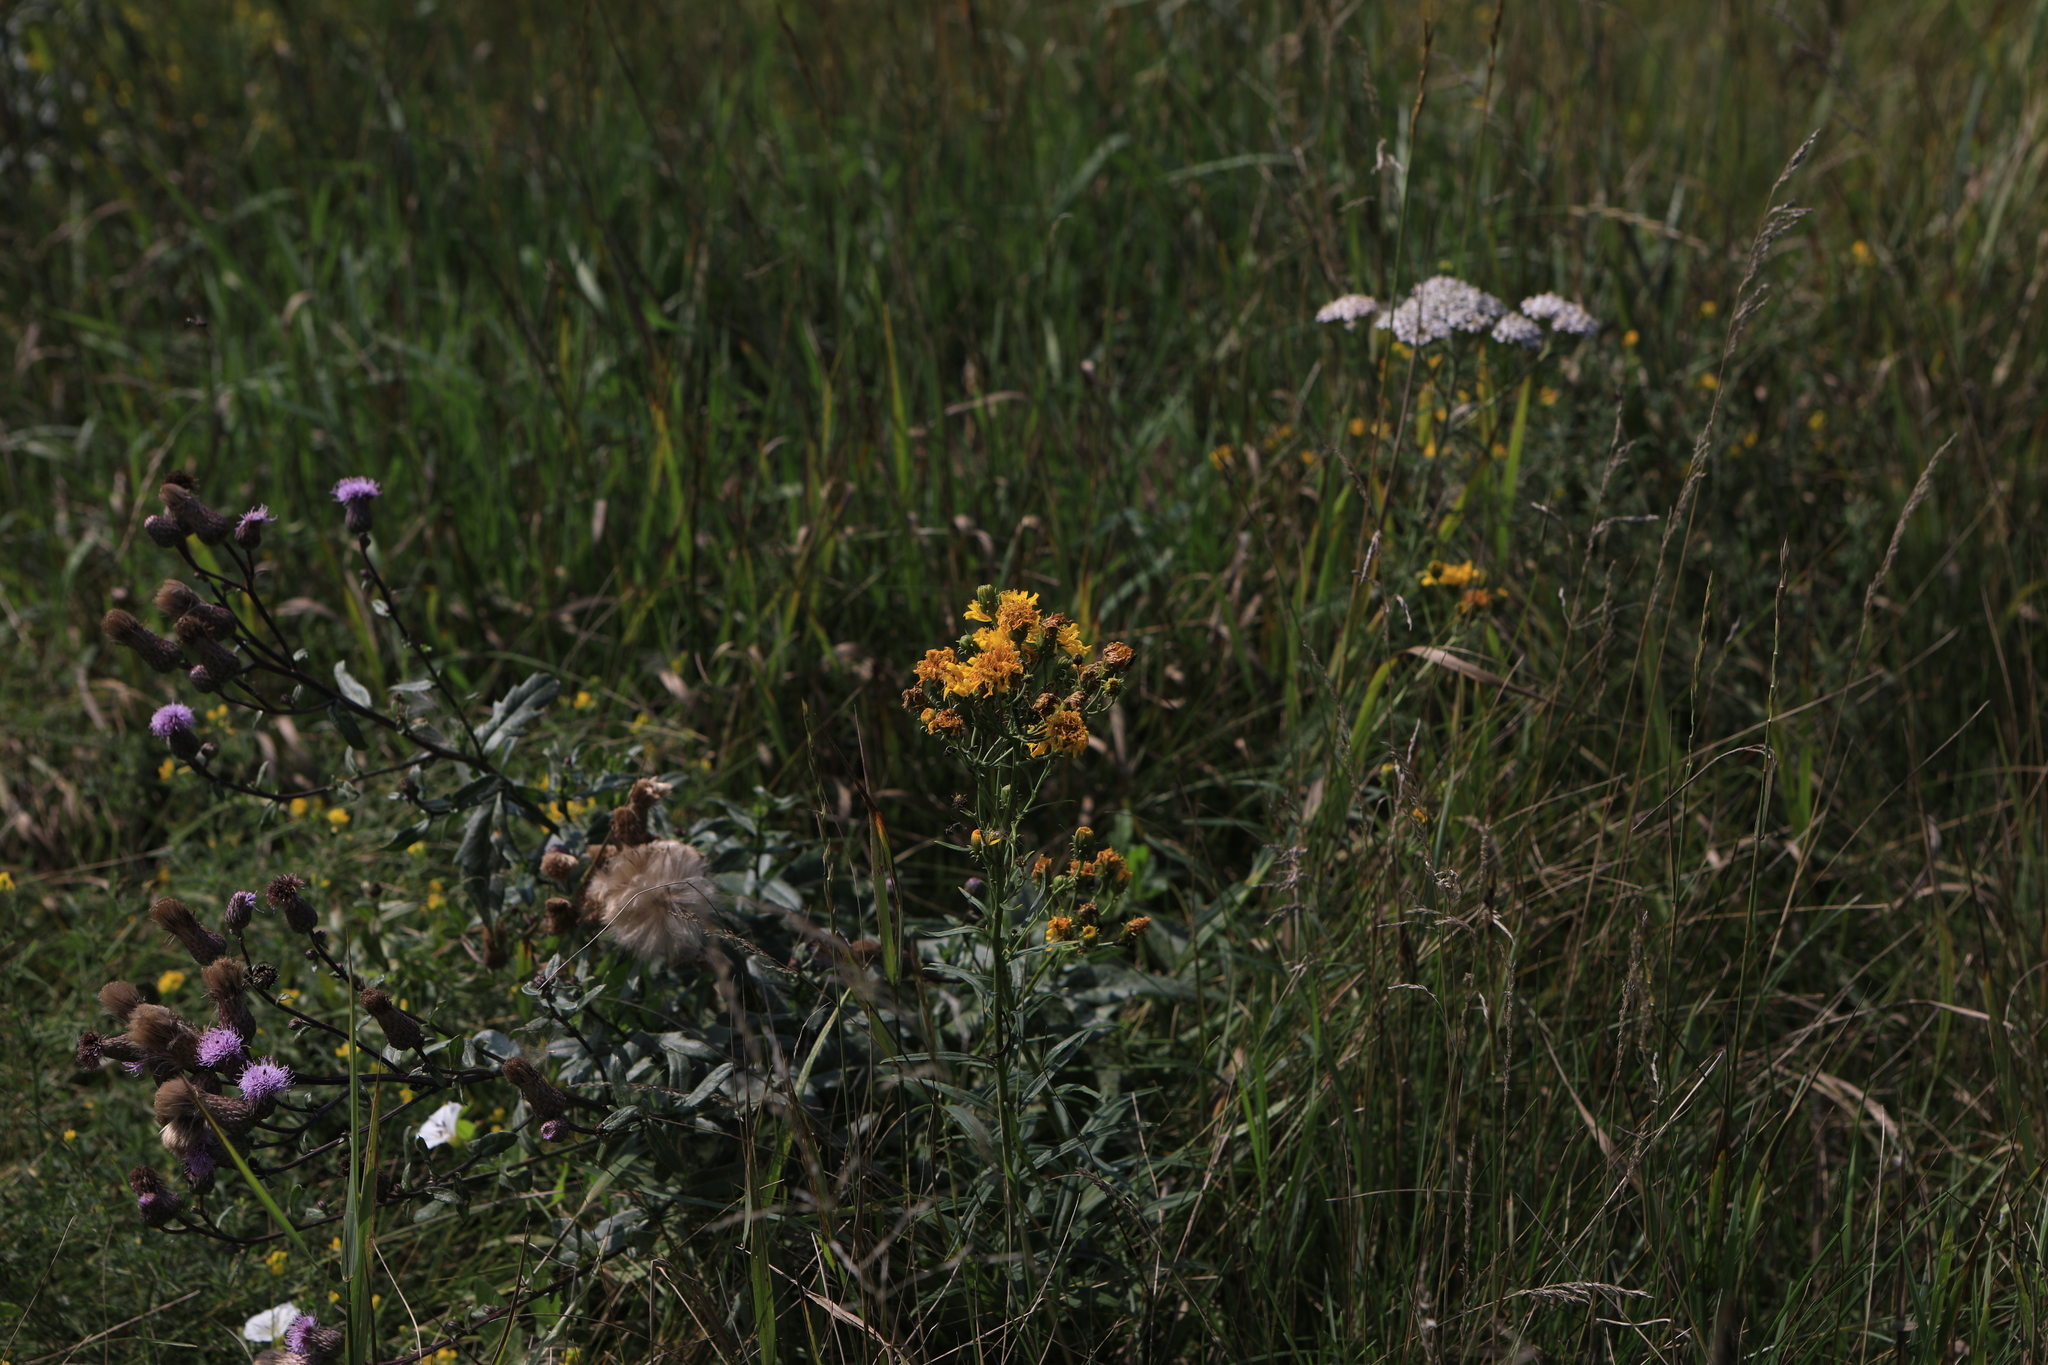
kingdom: Plantae
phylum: Tracheophyta
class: Magnoliopsida
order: Asterales
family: Asteraceae
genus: Hieracium
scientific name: Hieracium umbellatum
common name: Northern hawkweed
